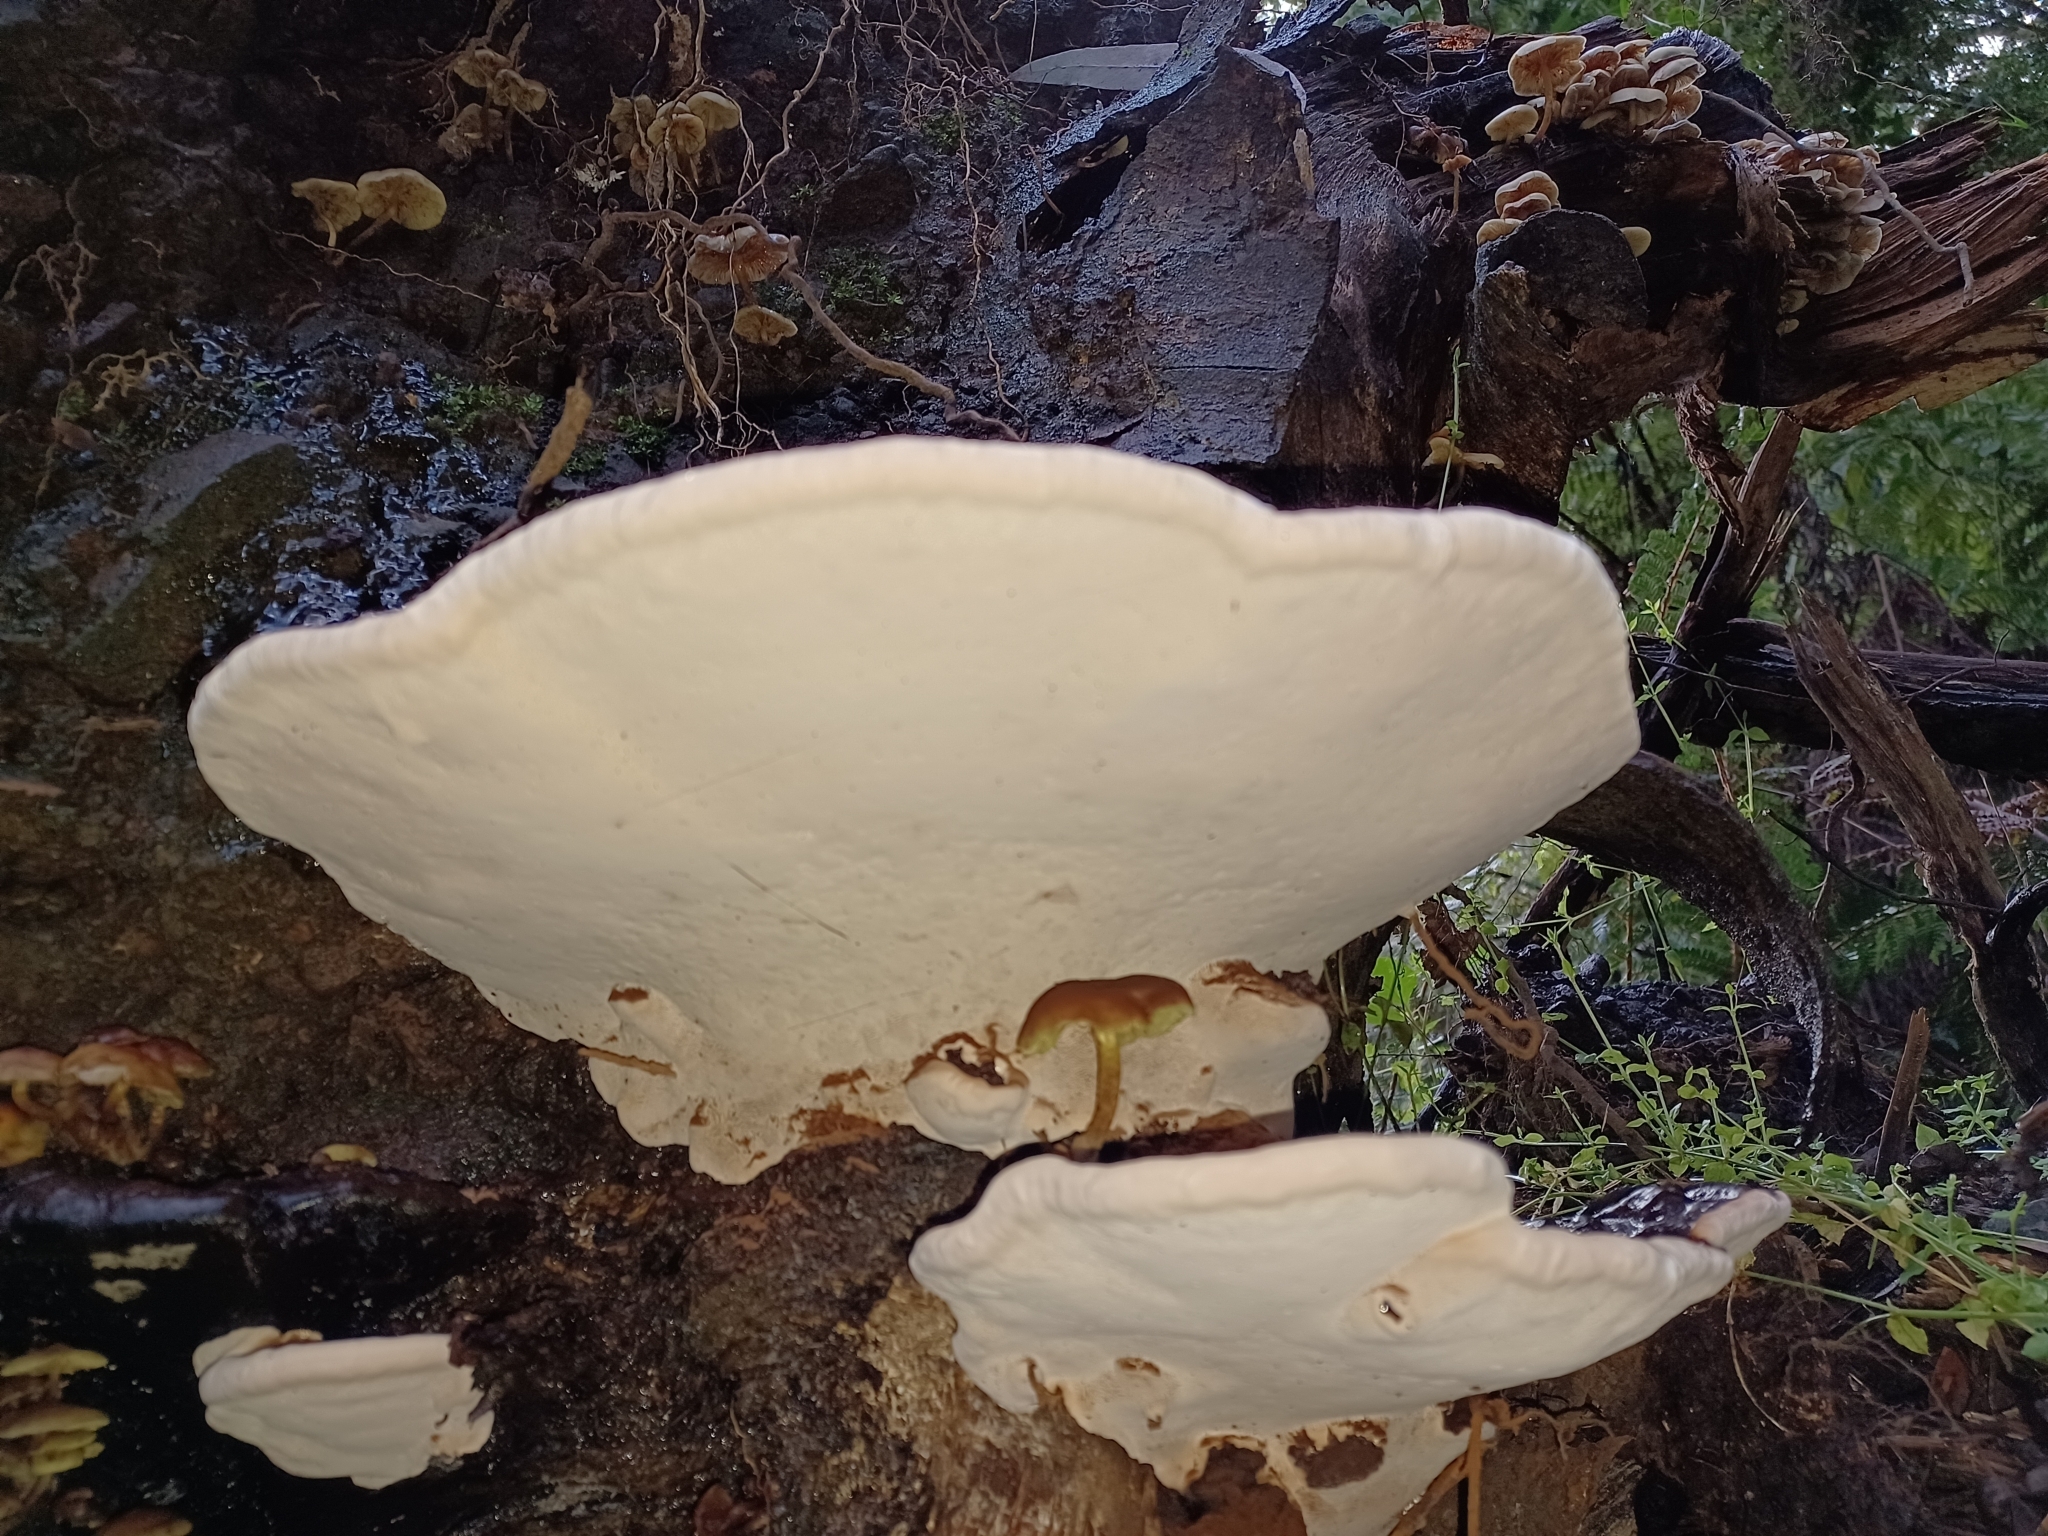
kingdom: Fungi
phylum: Basidiomycota
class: Agaricomycetes
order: Polyporales
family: Polyporaceae
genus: Ganoderma
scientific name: Ganoderma australe
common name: Southern bracket
